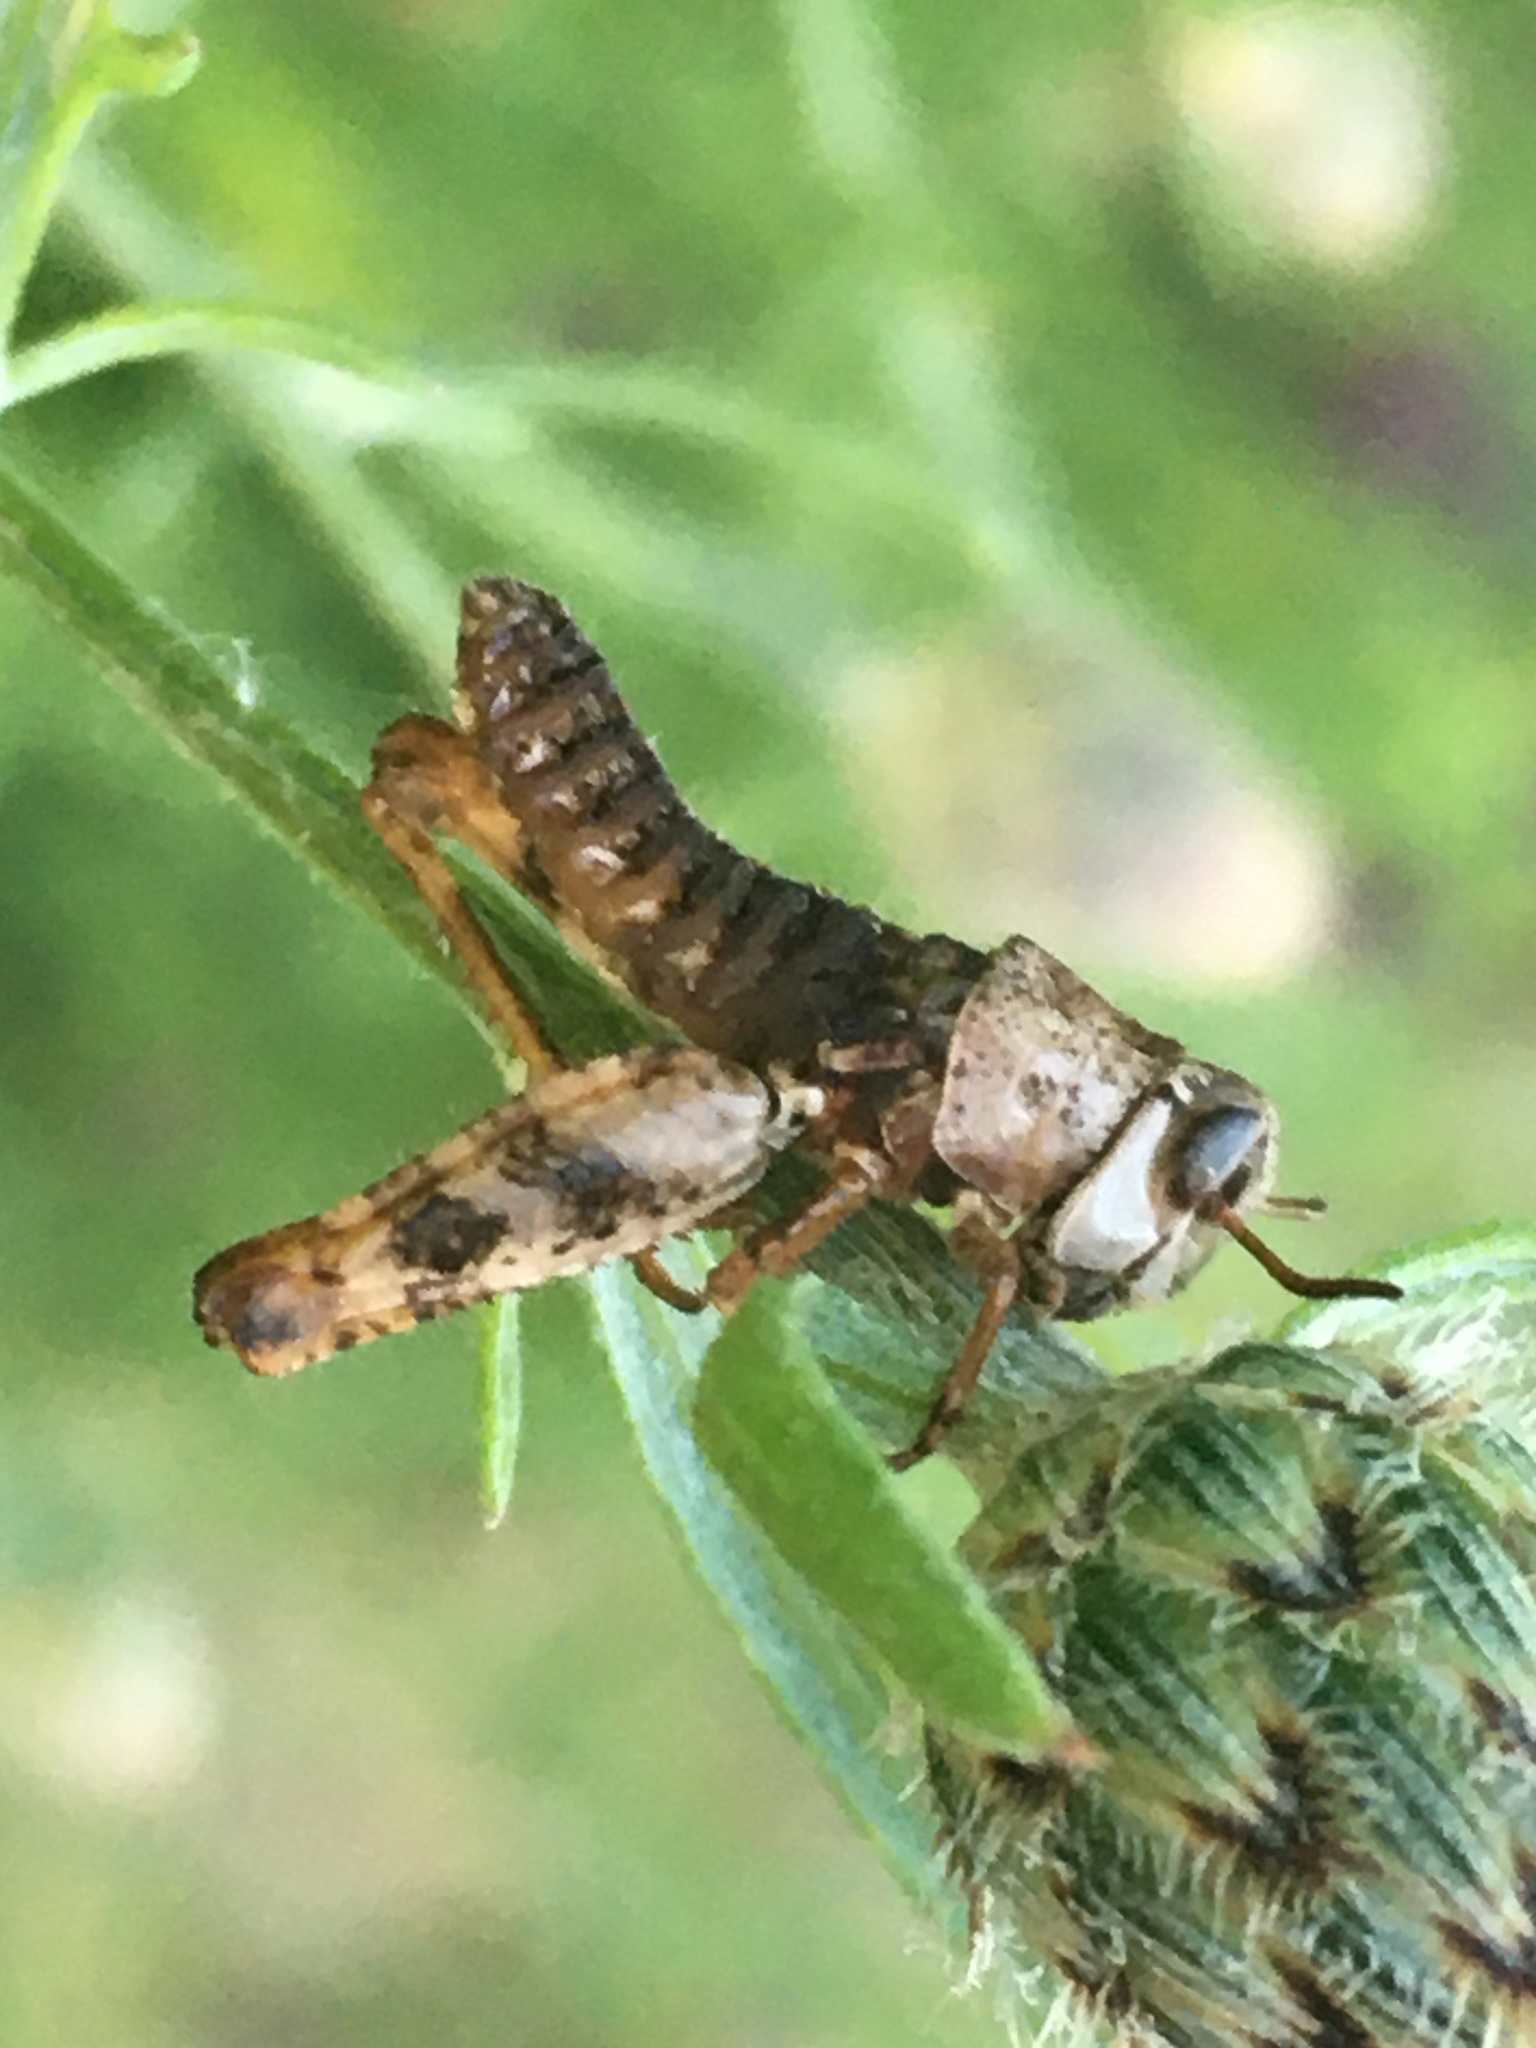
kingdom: Animalia
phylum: Arthropoda
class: Insecta
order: Orthoptera
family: Acrididae
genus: Calliptamus
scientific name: Calliptamus italicus
